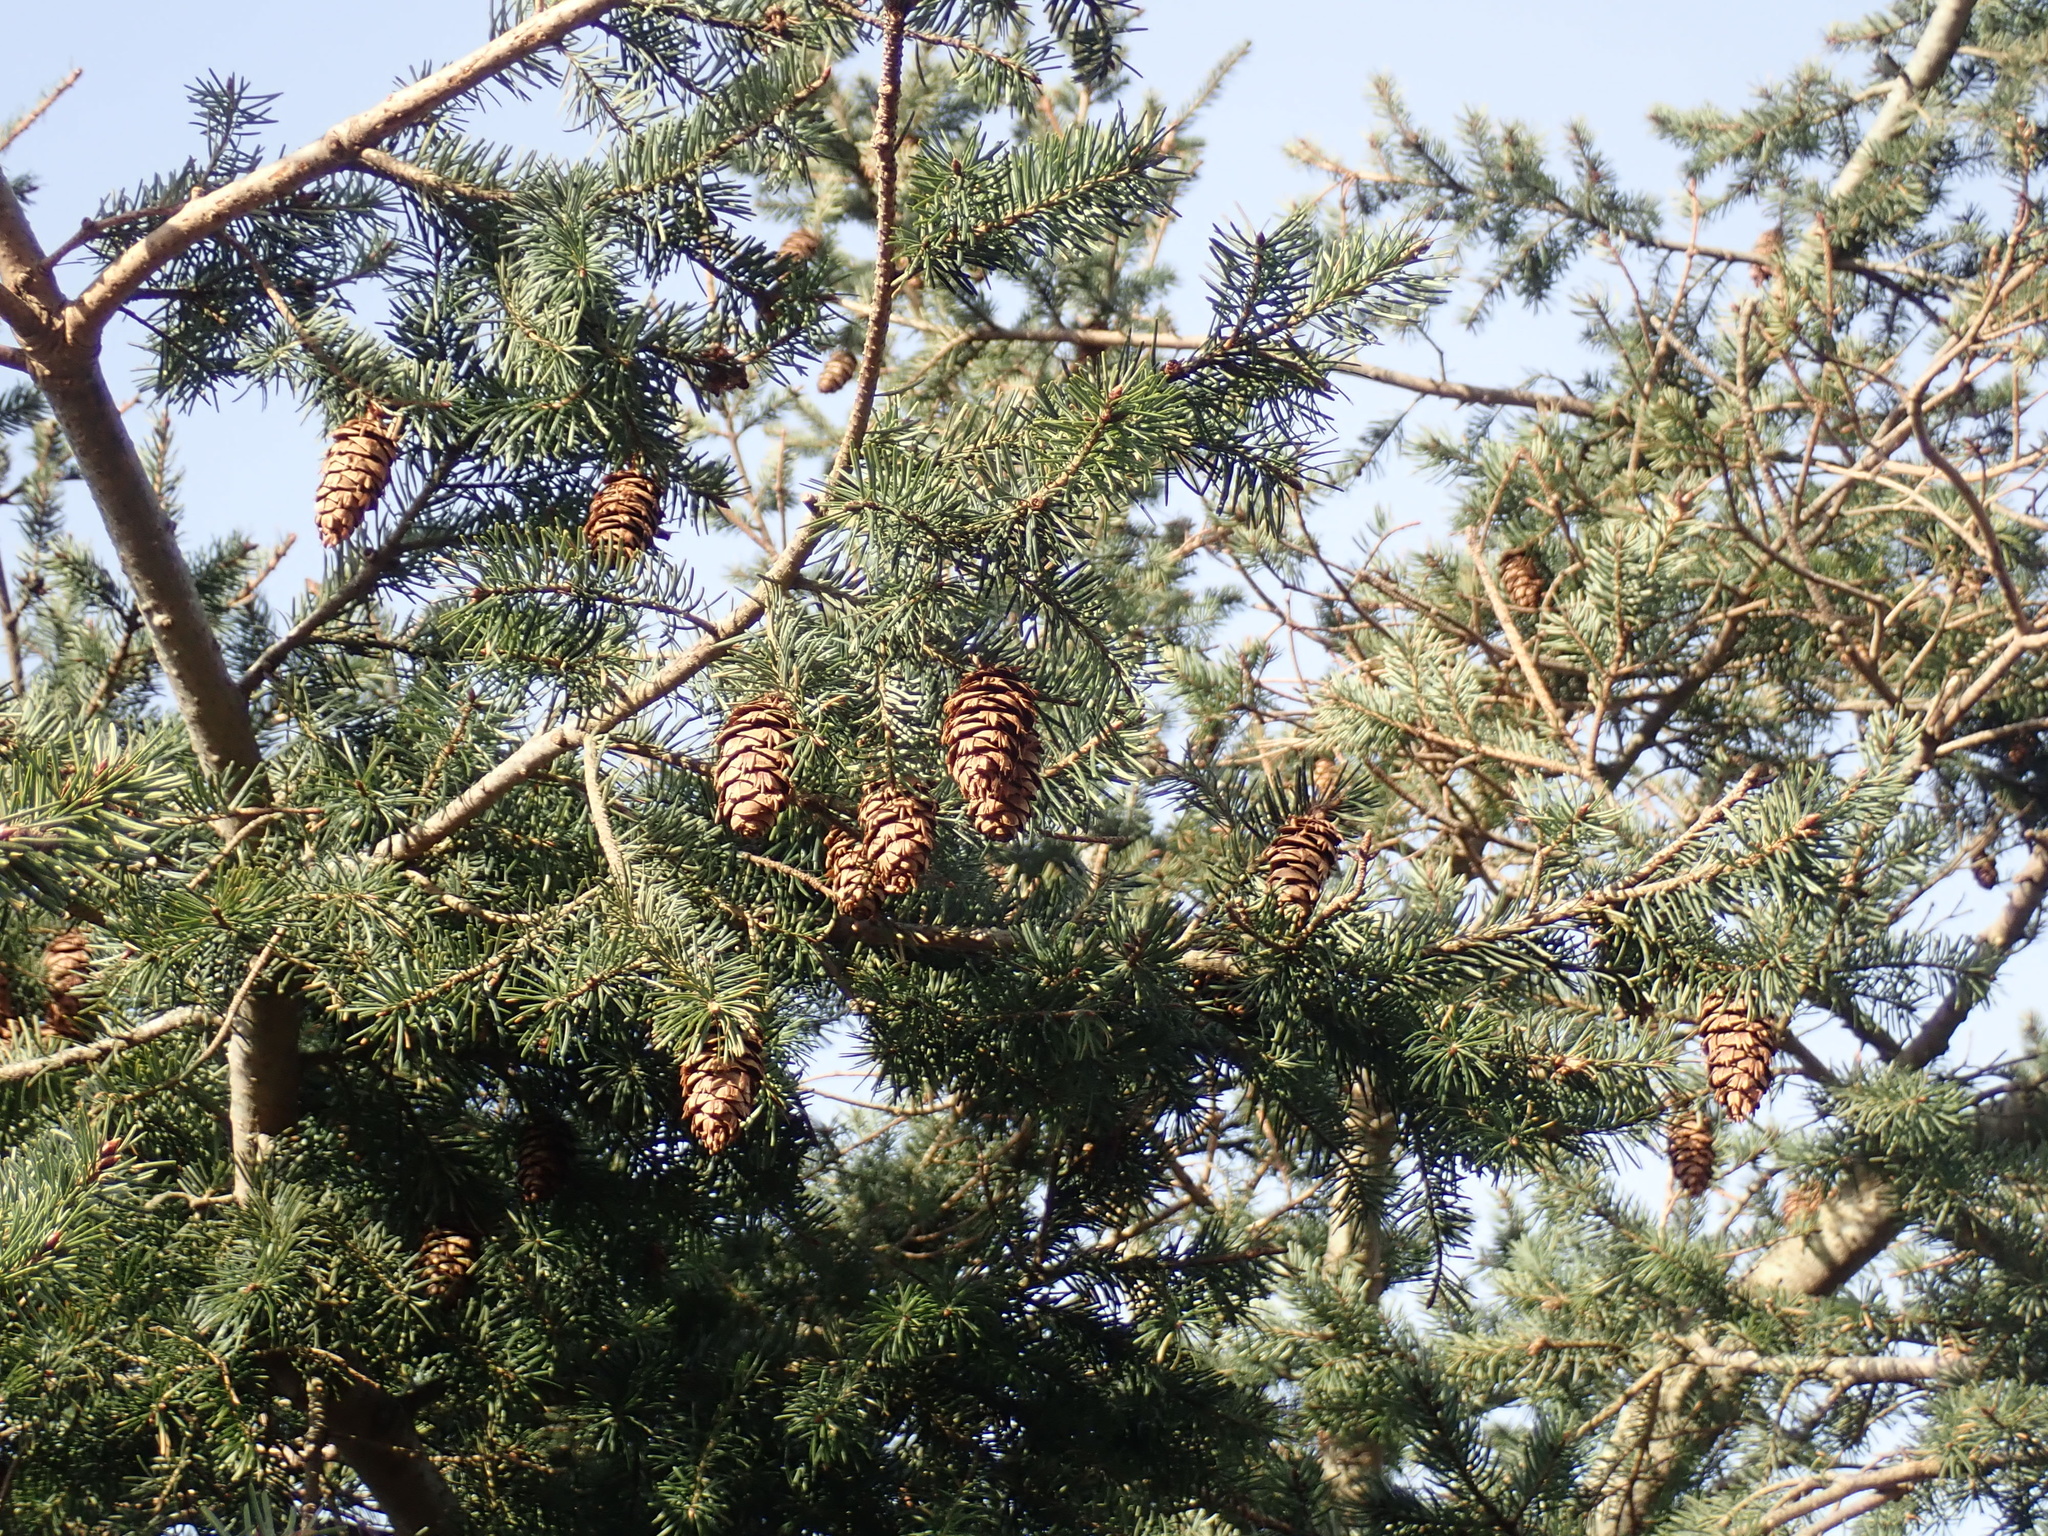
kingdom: Plantae
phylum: Tracheophyta
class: Pinopsida
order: Pinales
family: Pinaceae
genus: Pseudotsuga
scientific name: Pseudotsuga menziesii
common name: Douglas fir
